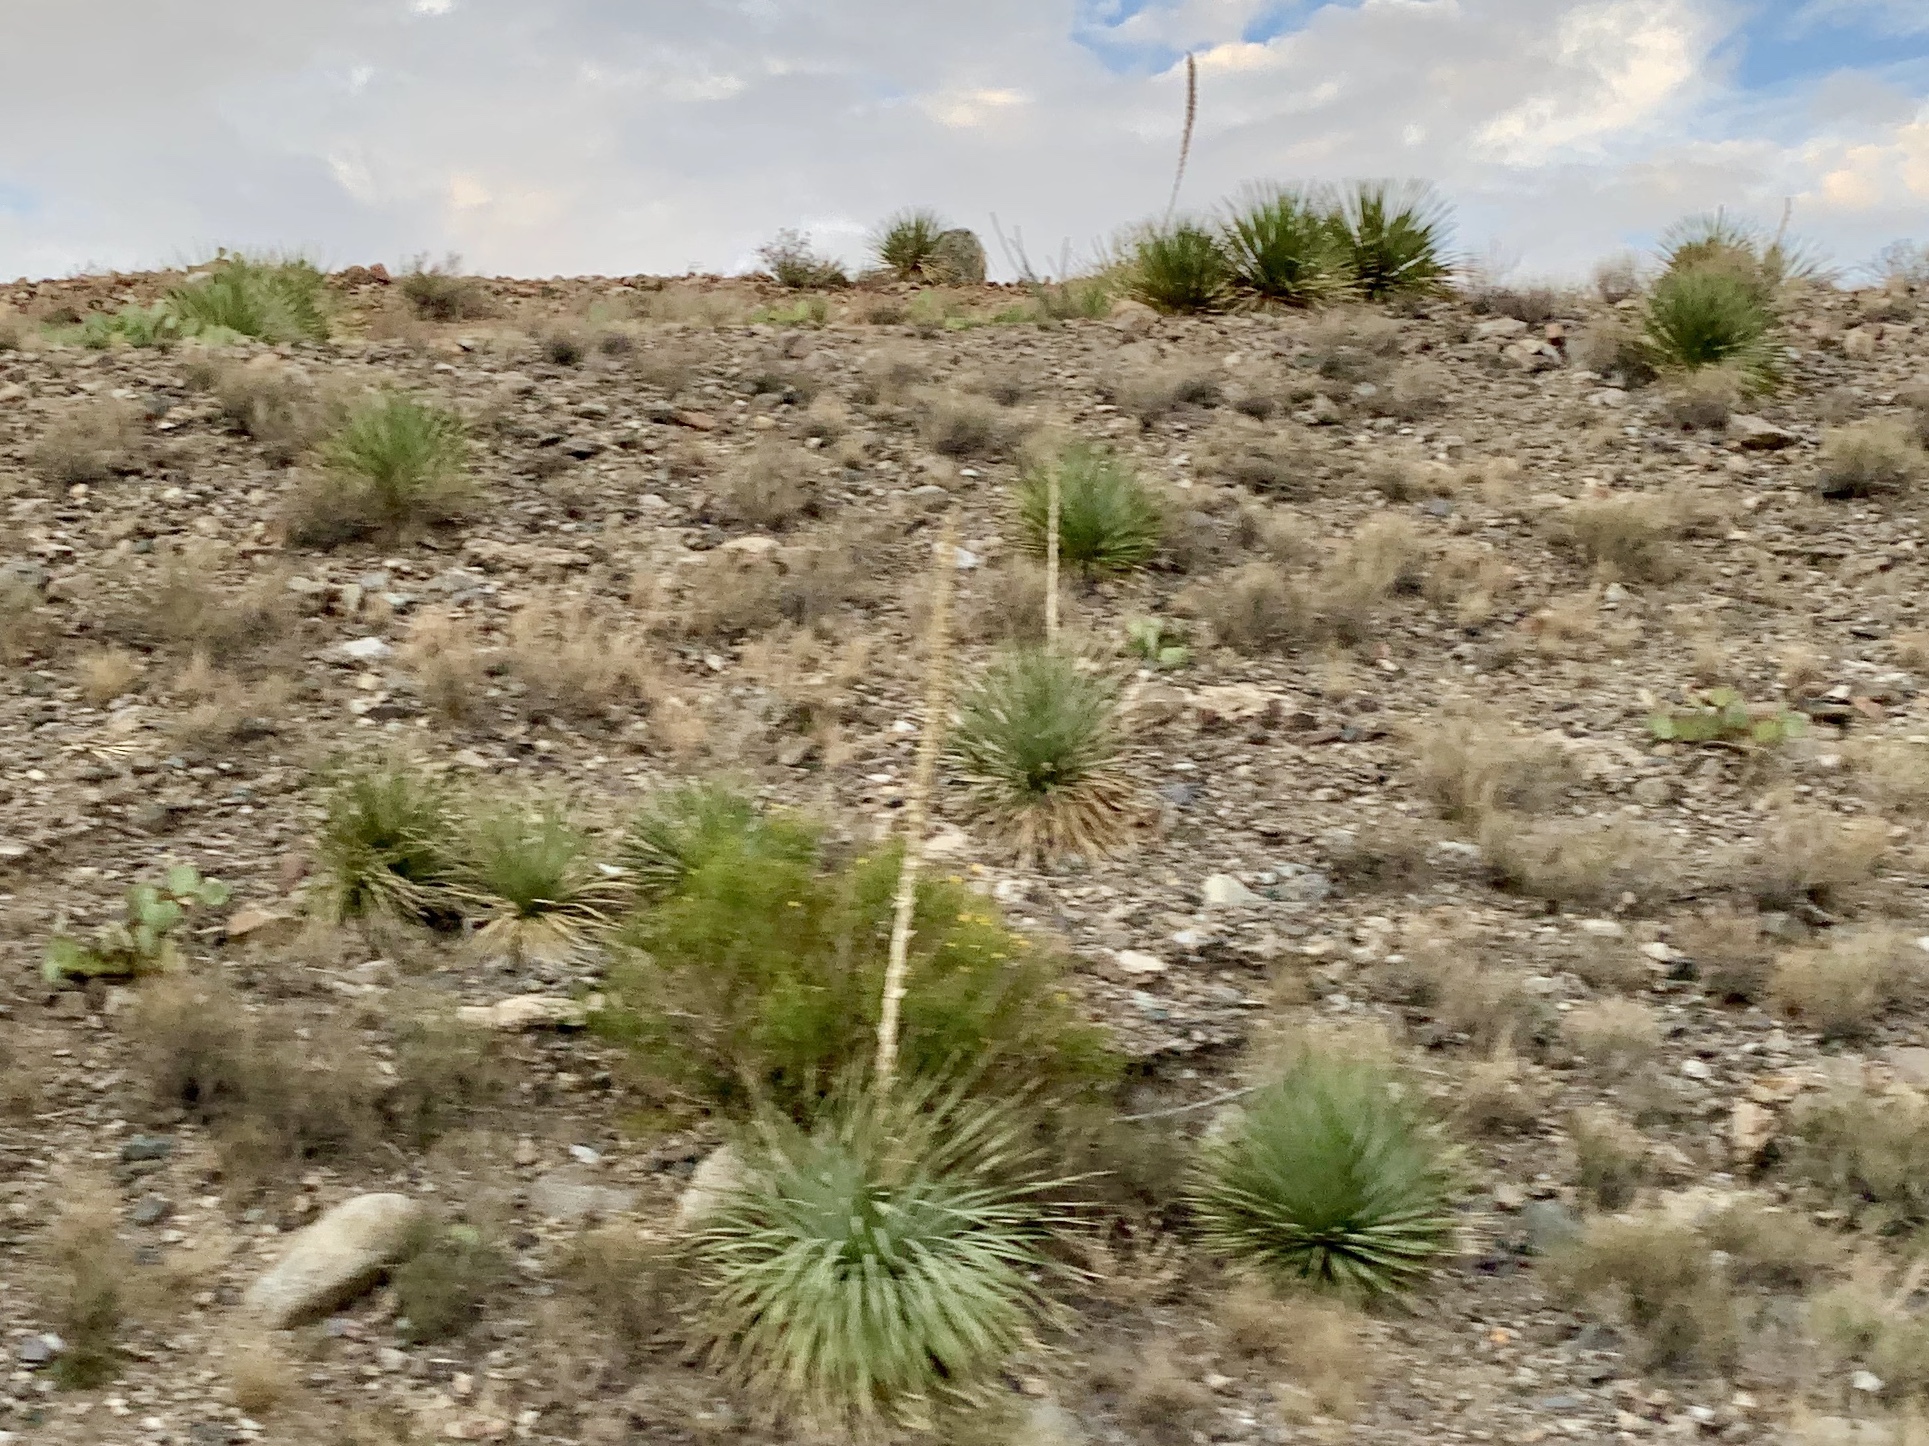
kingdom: Plantae
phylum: Tracheophyta
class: Liliopsida
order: Asparagales
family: Asparagaceae
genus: Dasylirion
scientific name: Dasylirion wheeleri
